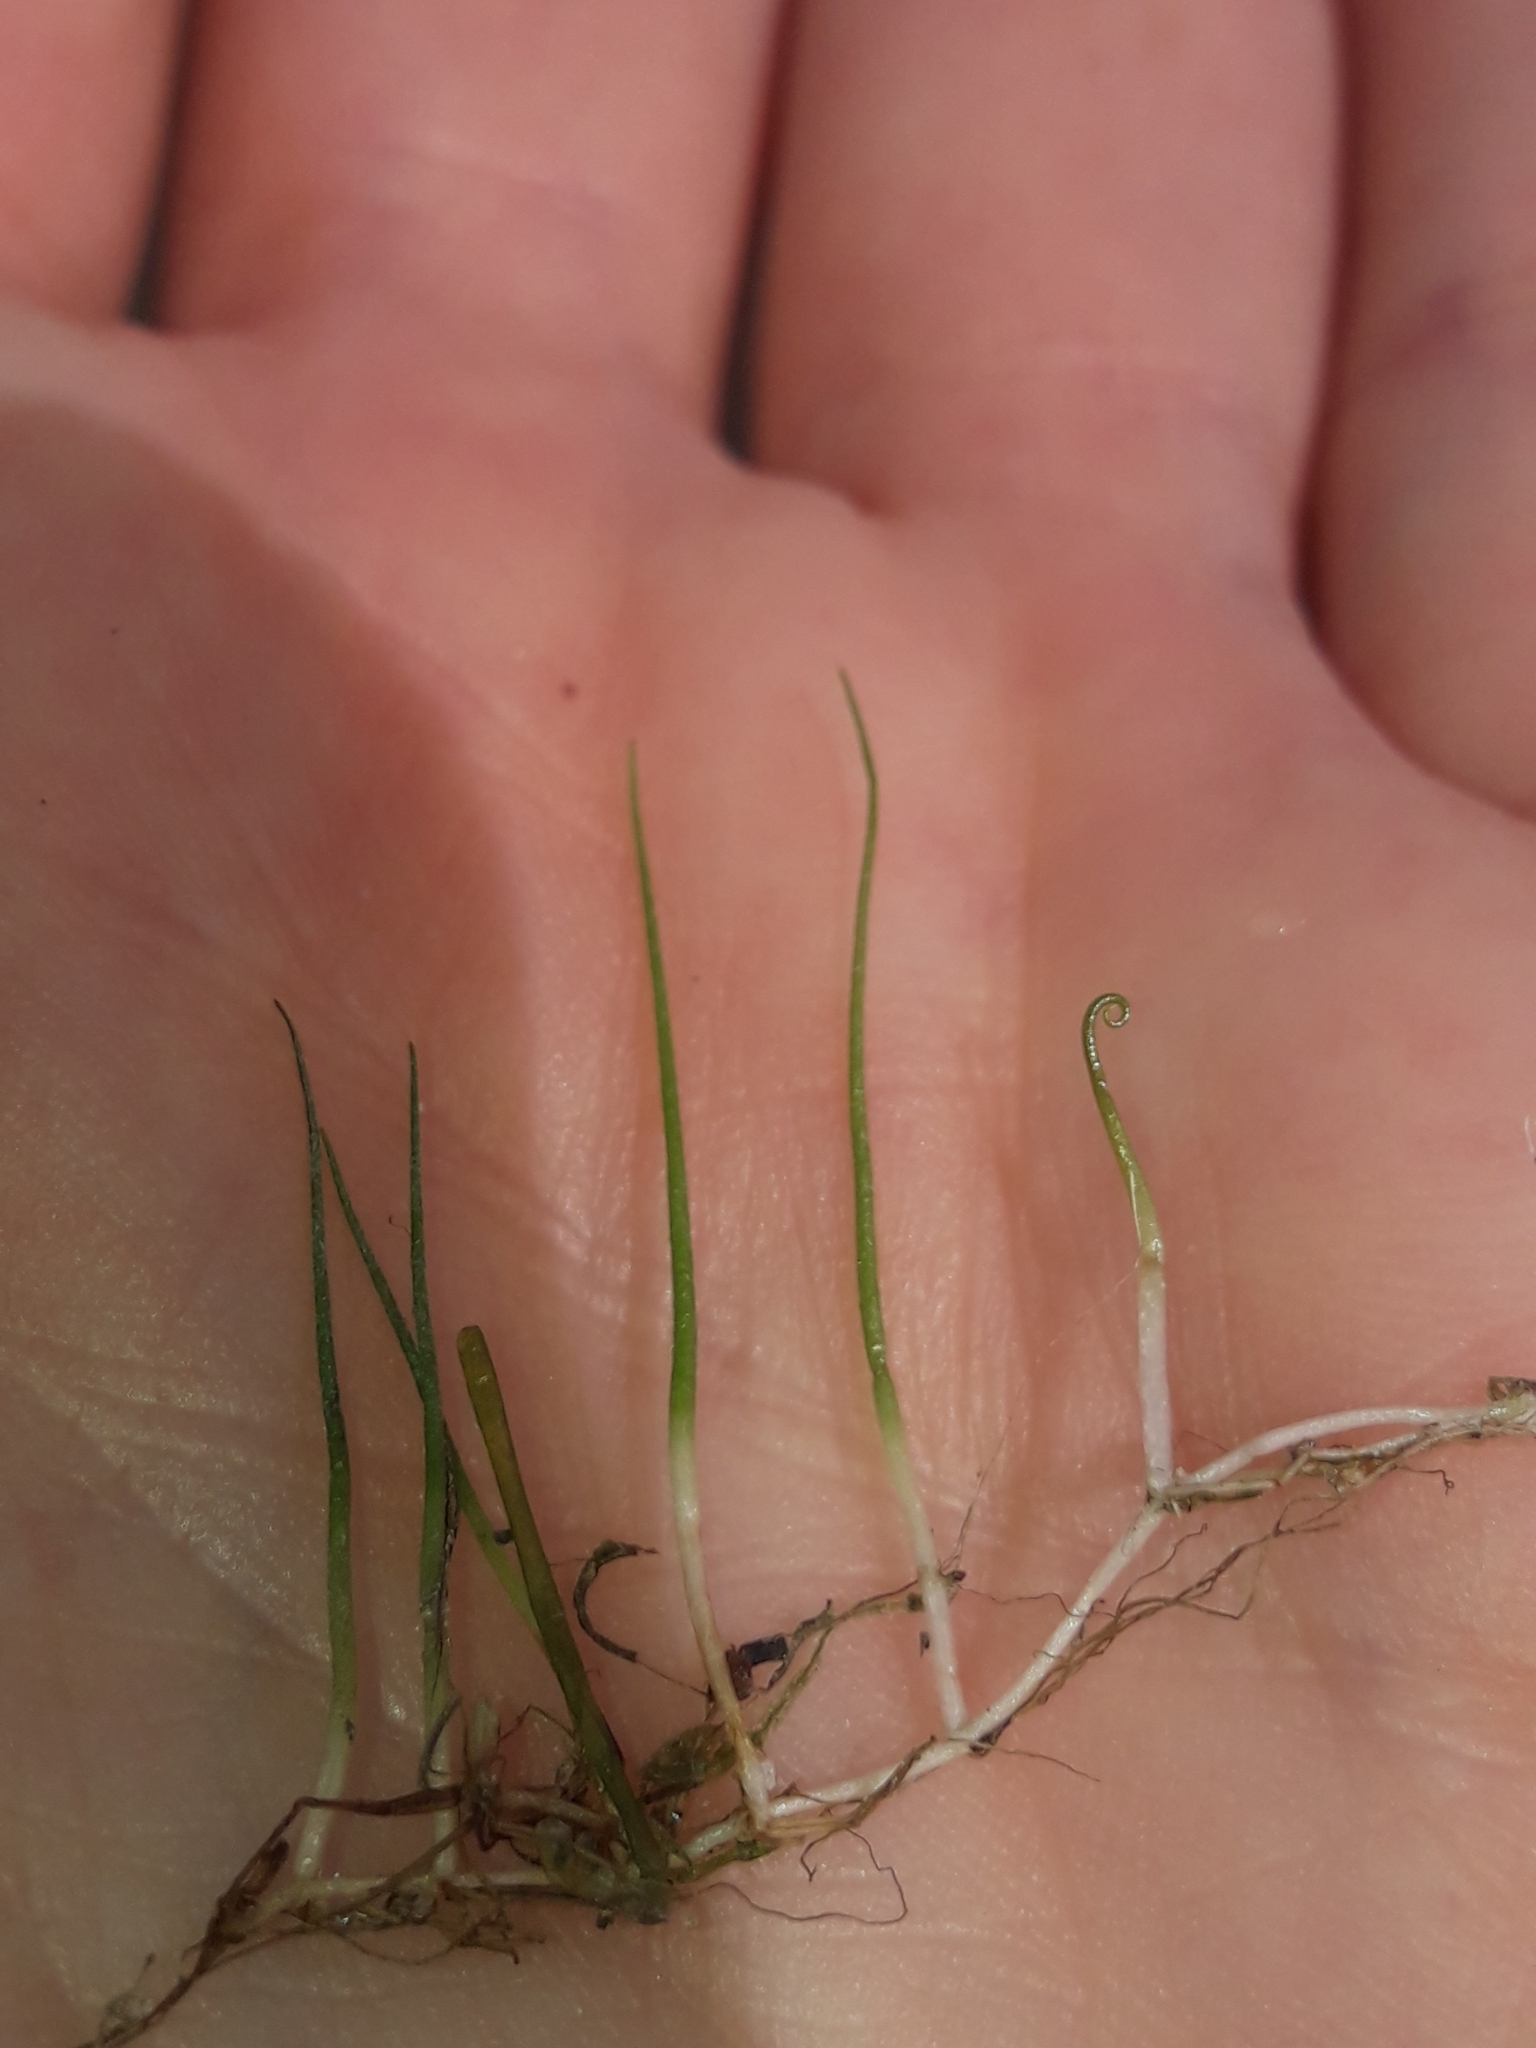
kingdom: Plantae
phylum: Tracheophyta
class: Polypodiopsida
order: Salviniales
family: Marsileaceae
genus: Pilularia
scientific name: Pilularia novae-hollandiae
